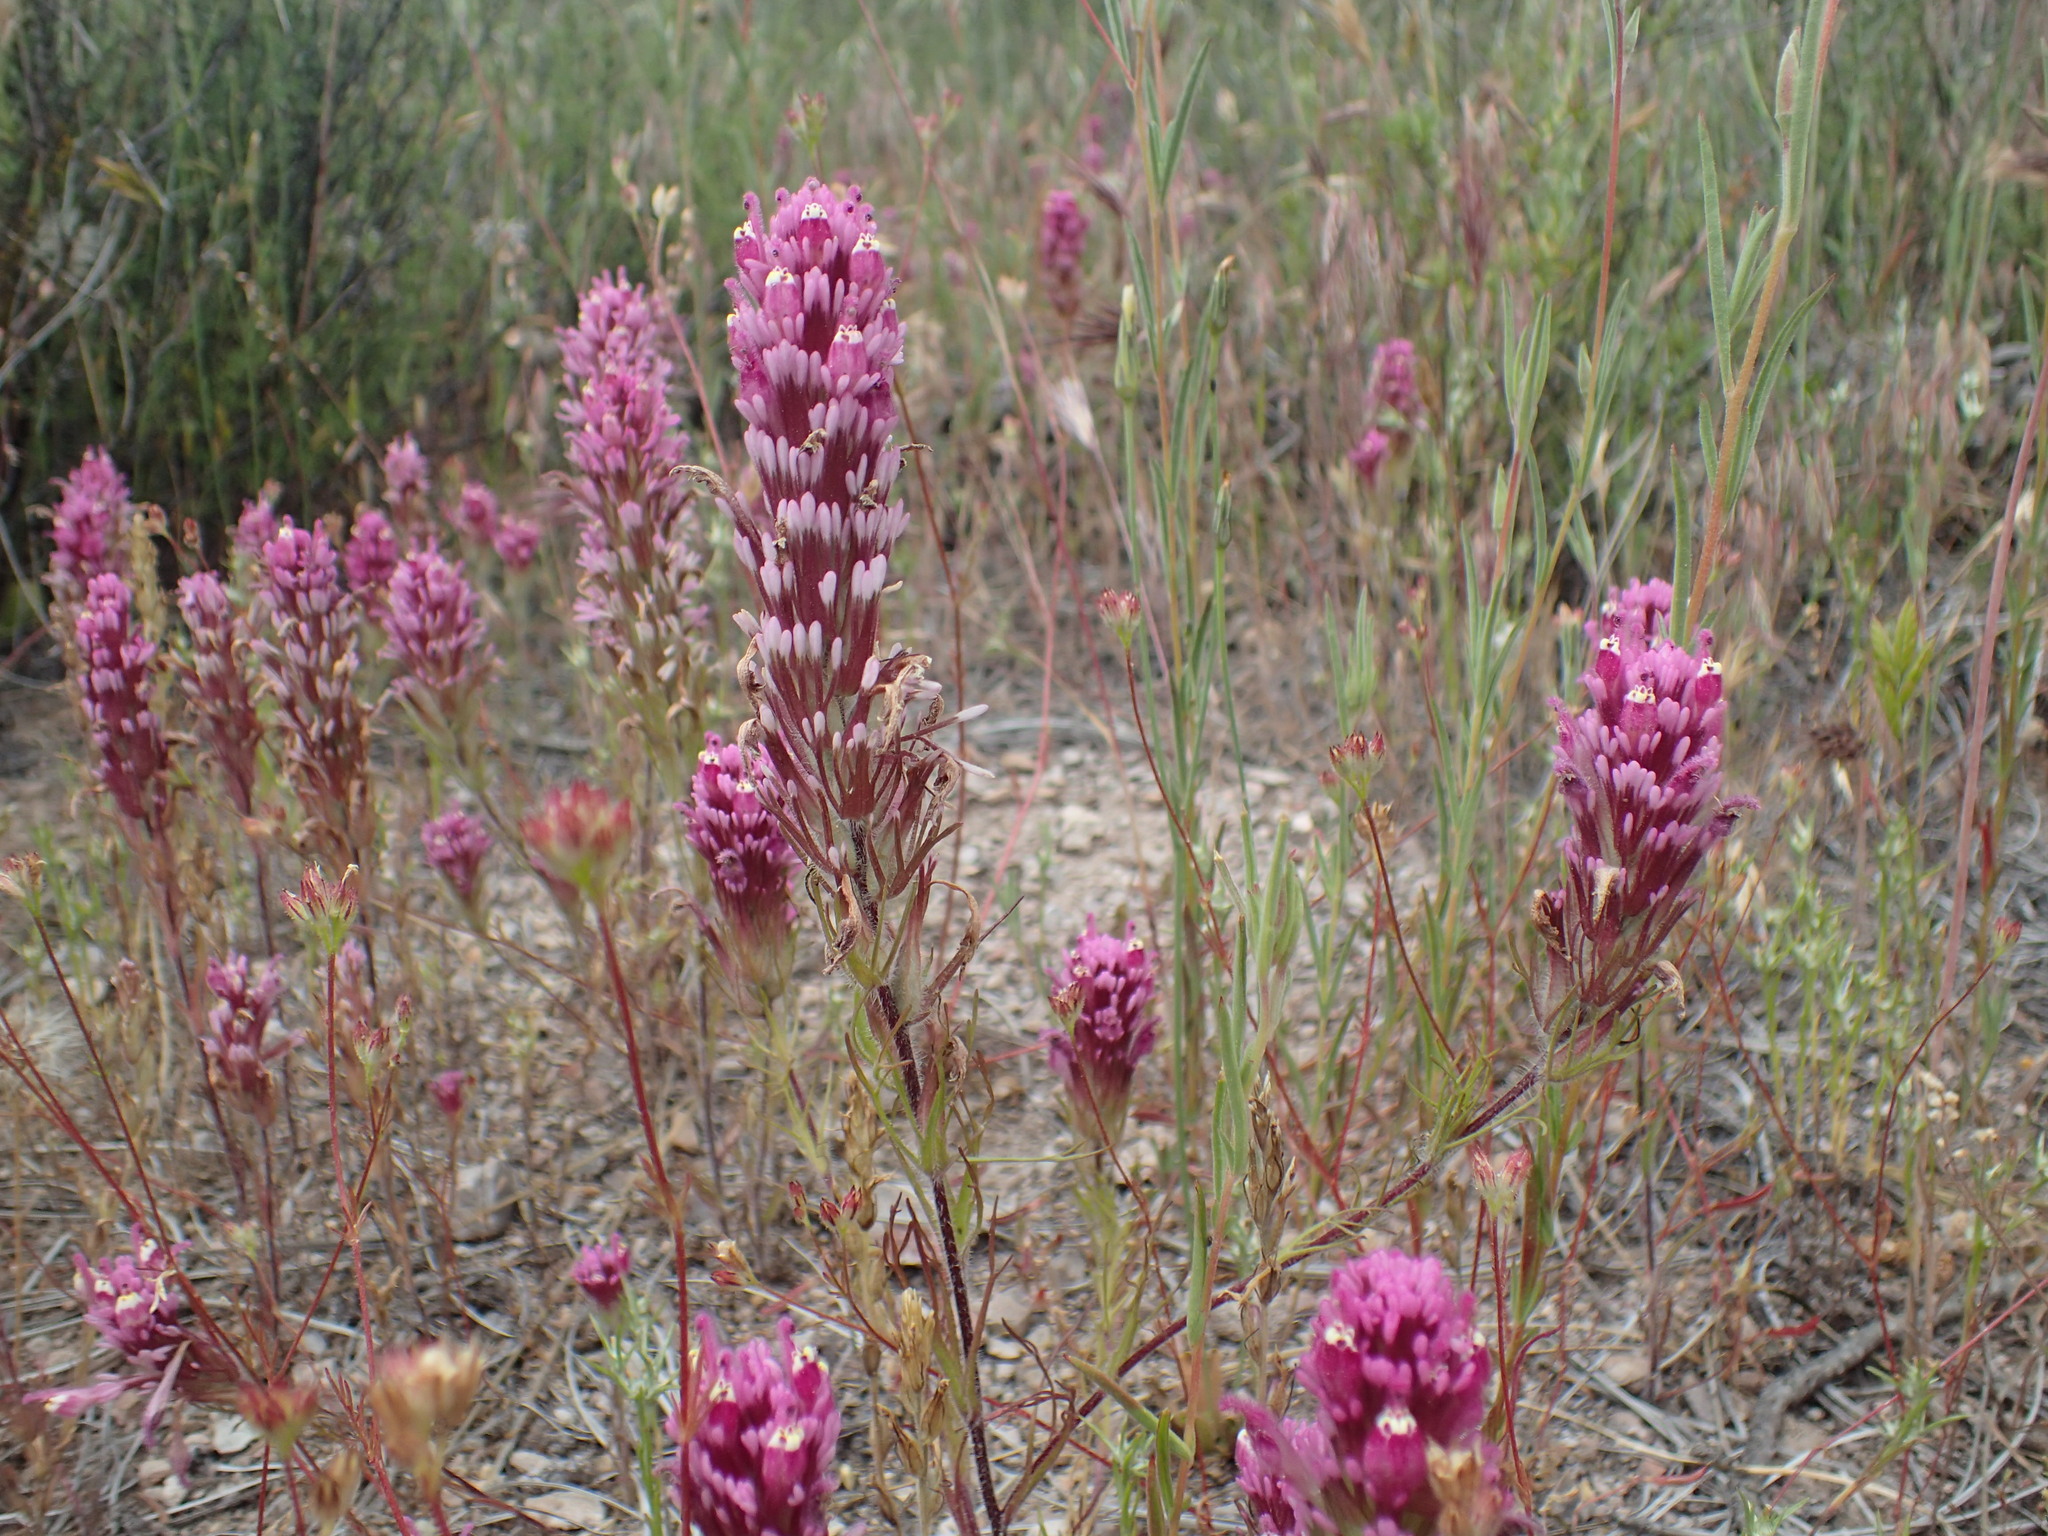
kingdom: Plantae
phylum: Tracheophyta
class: Magnoliopsida
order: Lamiales
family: Orobanchaceae
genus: Castilleja
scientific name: Castilleja exserta
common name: Purple owl-clover
